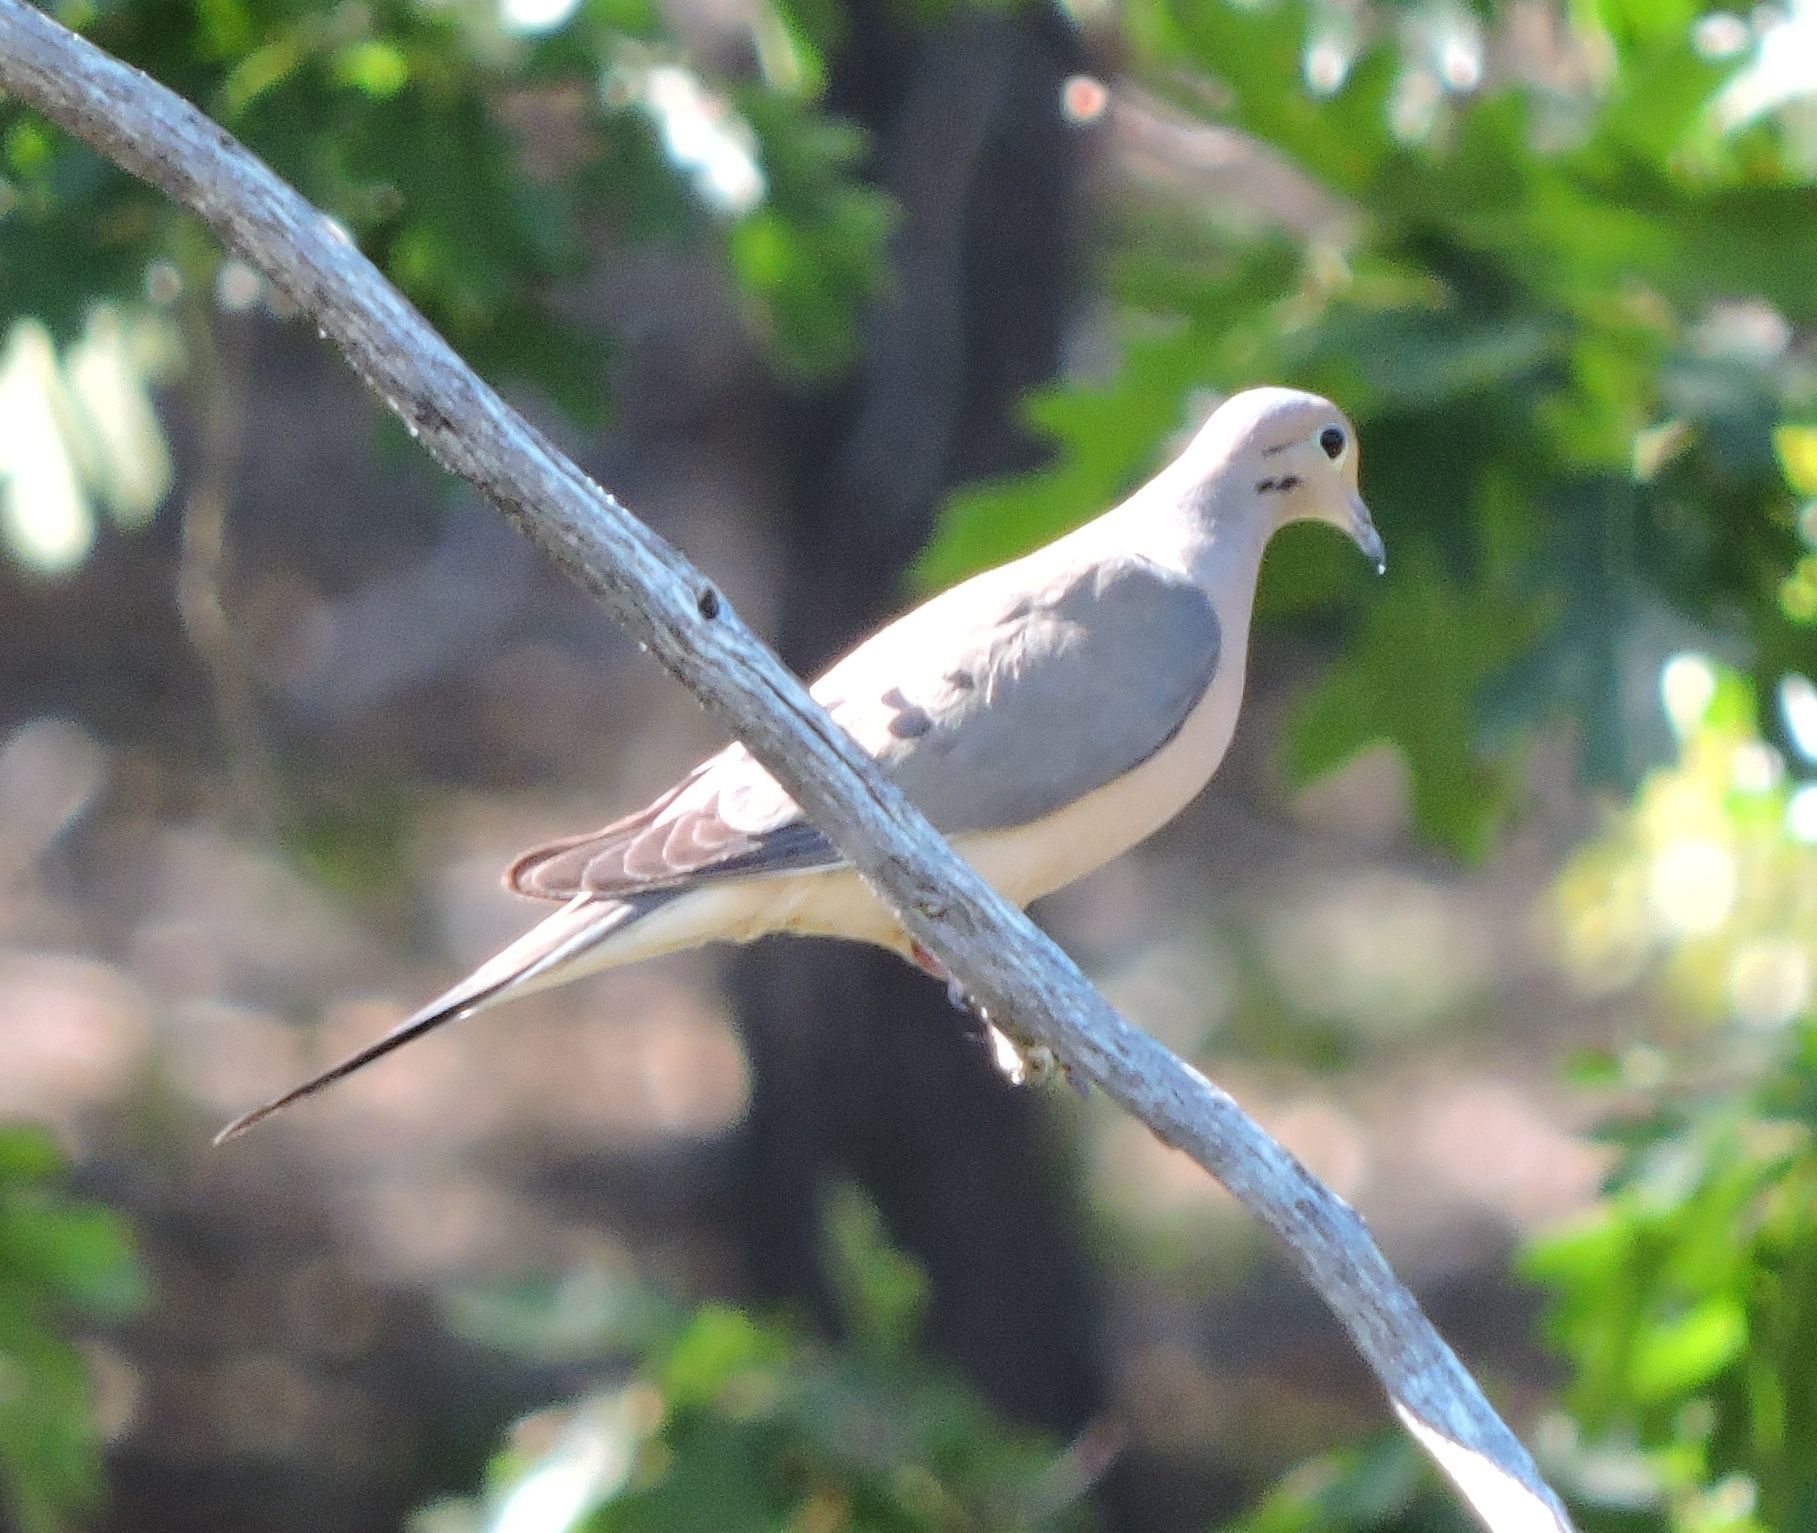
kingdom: Animalia
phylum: Chordata
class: Aves
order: Columbiformes
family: Columbidae
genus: Zenaida
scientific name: Zenaida macroura
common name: Mourning dove
